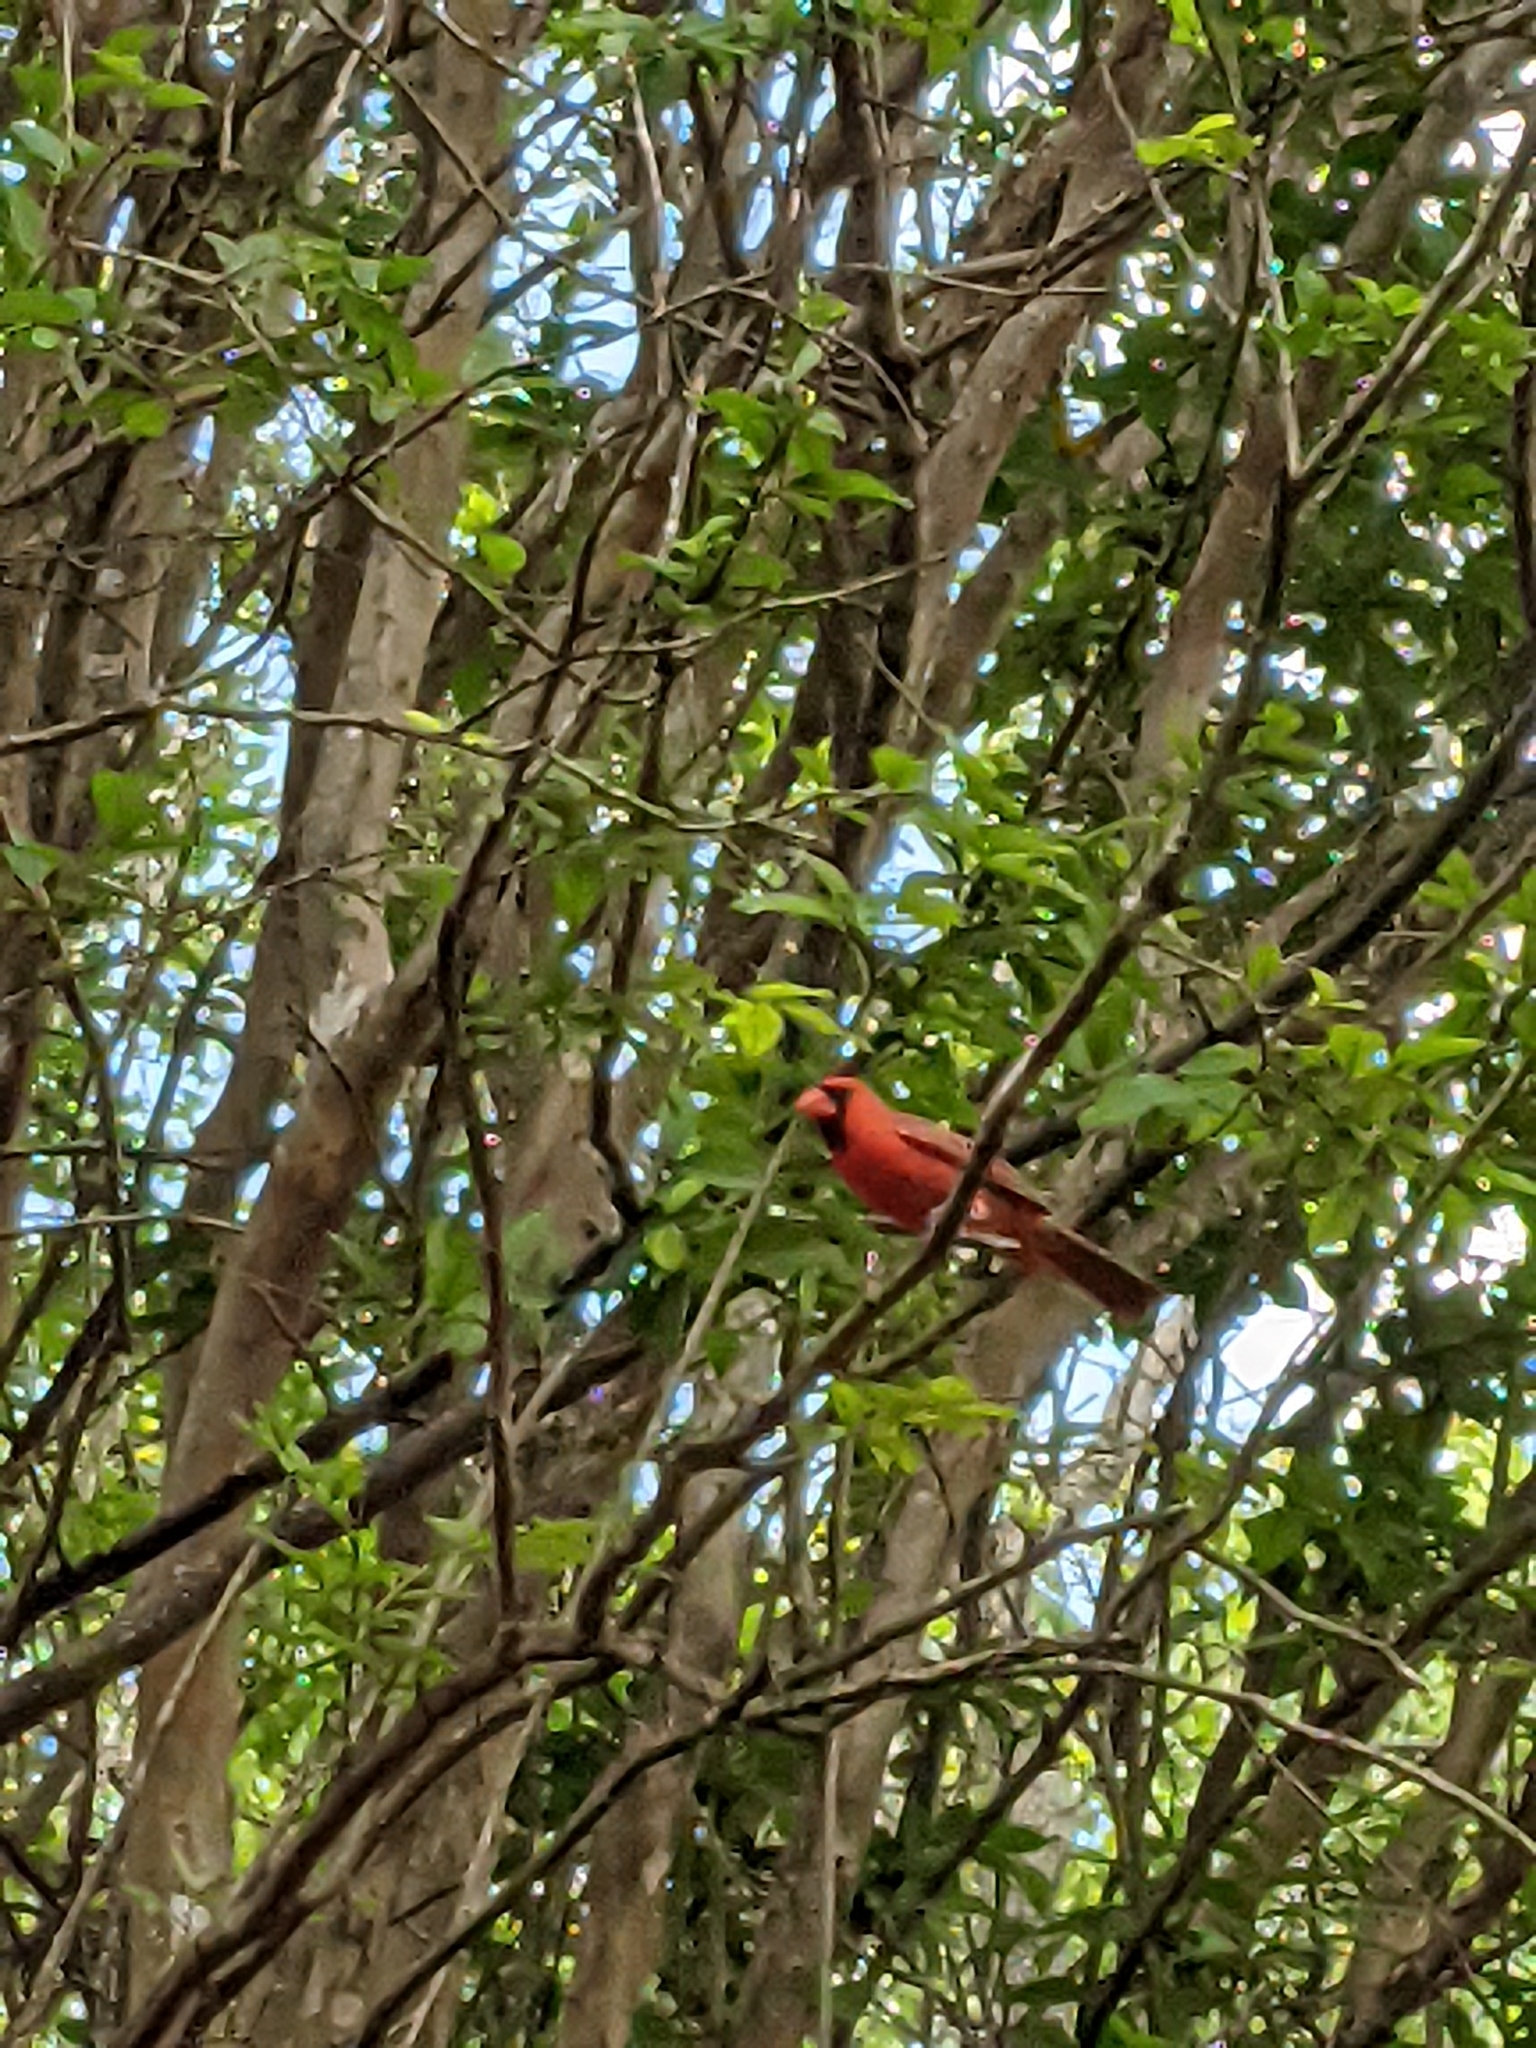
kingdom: Animalia
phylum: Chordata
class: Aves
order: Passeriformes
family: Cardinalidae
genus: Cardinalis
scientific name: Cardinalis cardinalis
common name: Northern cardinal
